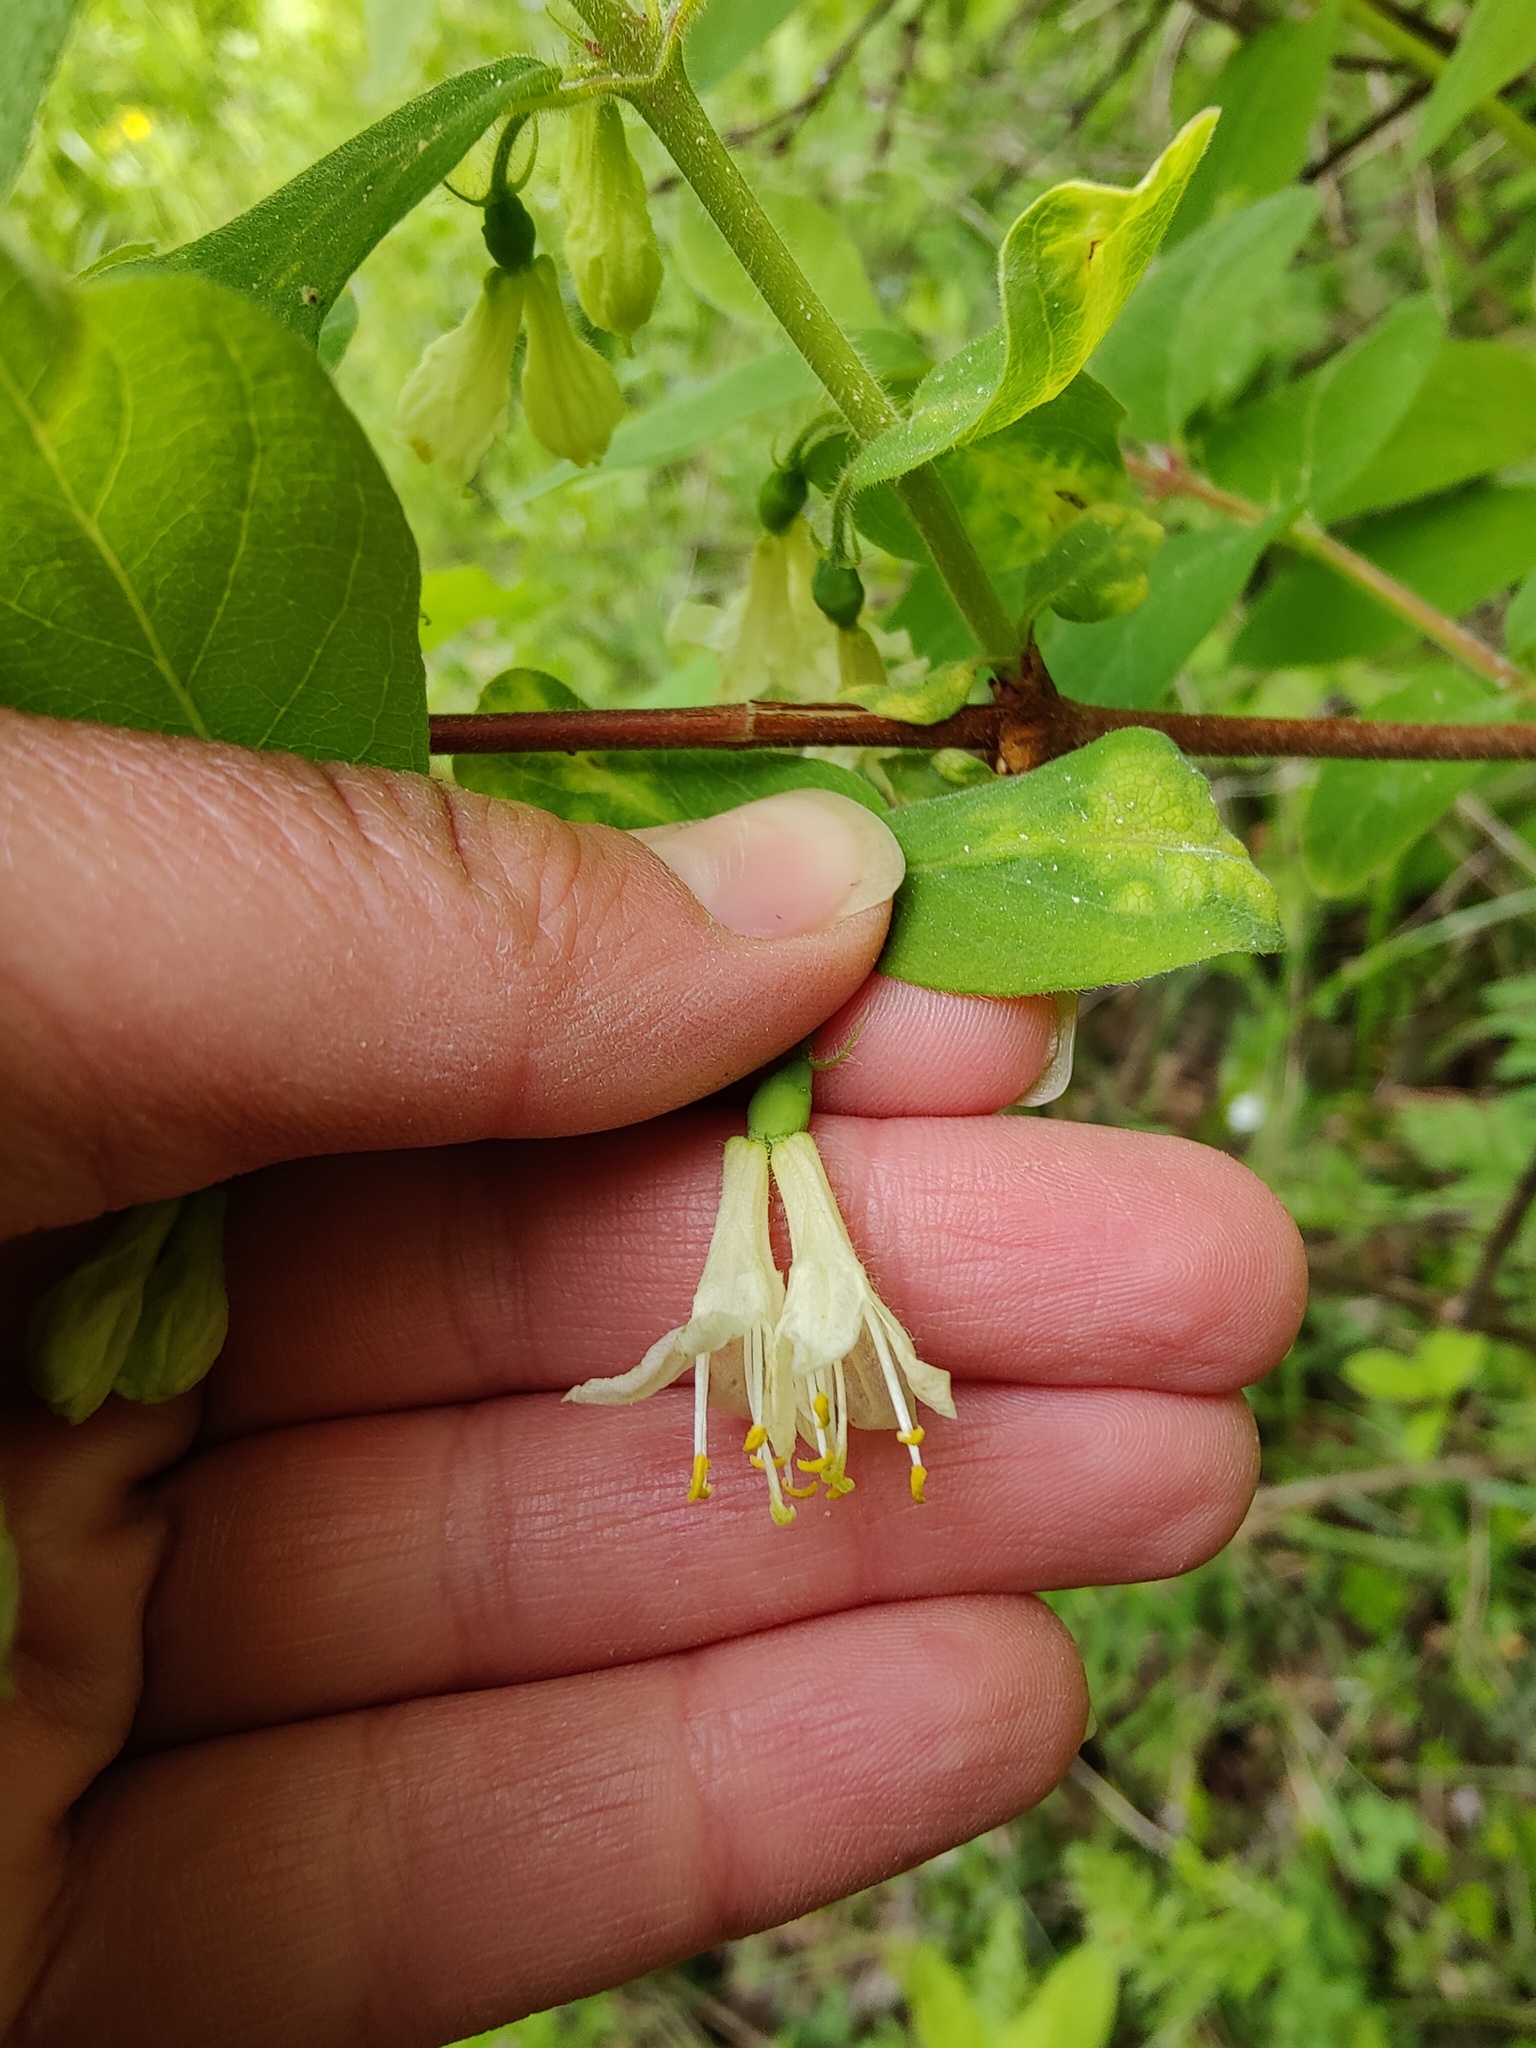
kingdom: Plantae
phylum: Tracheophyta
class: Magnoliopsida
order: Dipsacales
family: Caprifoliaceae
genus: Lonicera
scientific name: Lonicera caerulea
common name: Blue honeysuckle
